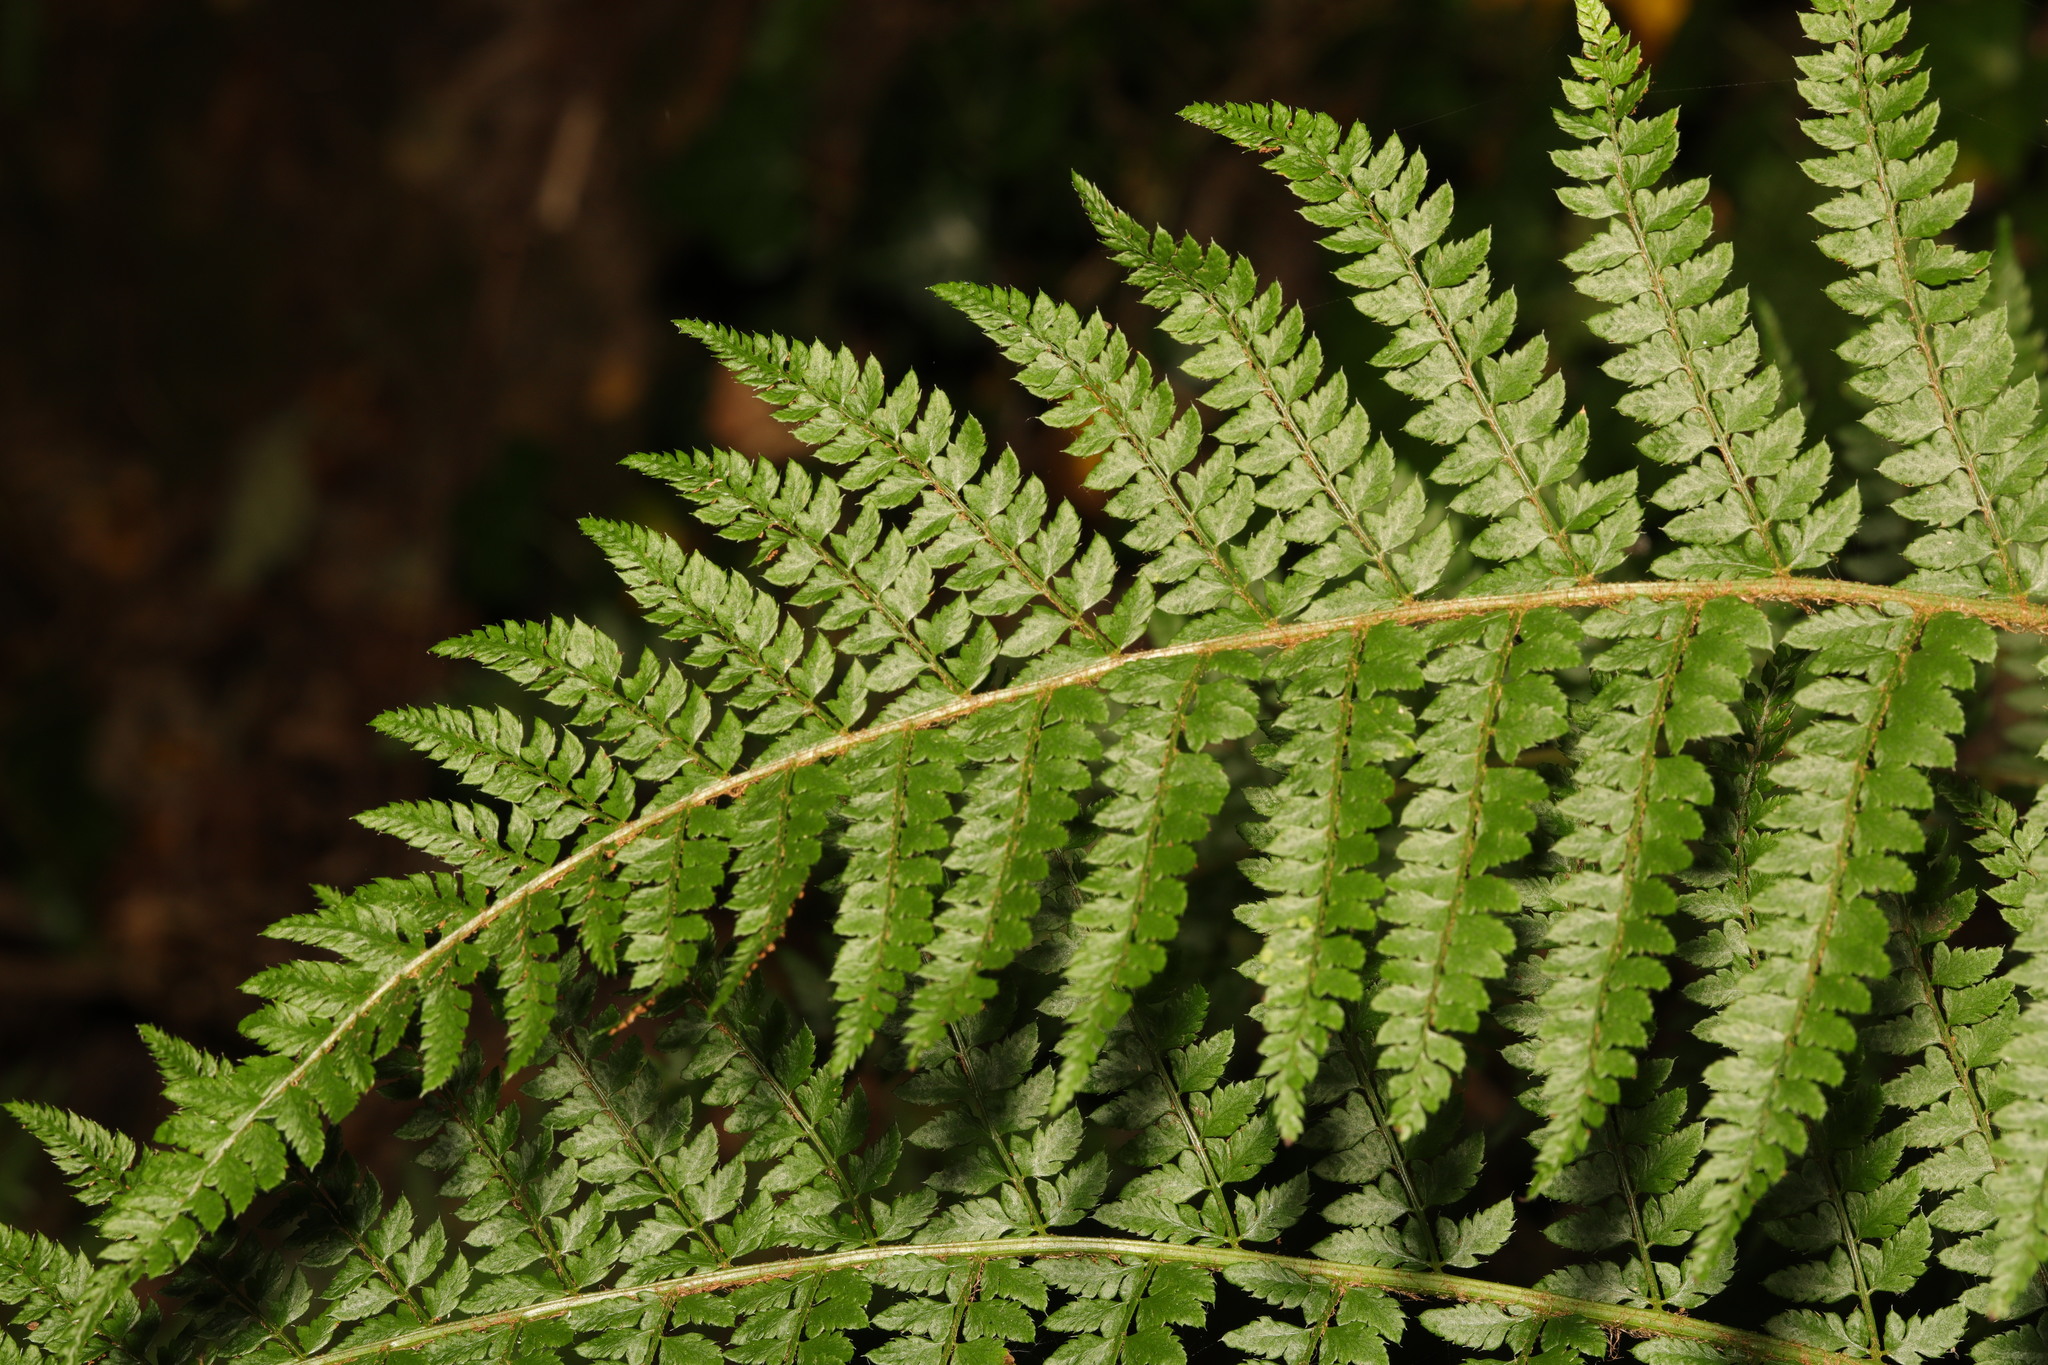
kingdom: Plantae
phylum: Tracheophyta
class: Polypodiopsida
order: Polypodiales
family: Dryopteridaceae
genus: Polystichum
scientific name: Polystichum setiferum
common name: Soft shield-fern
